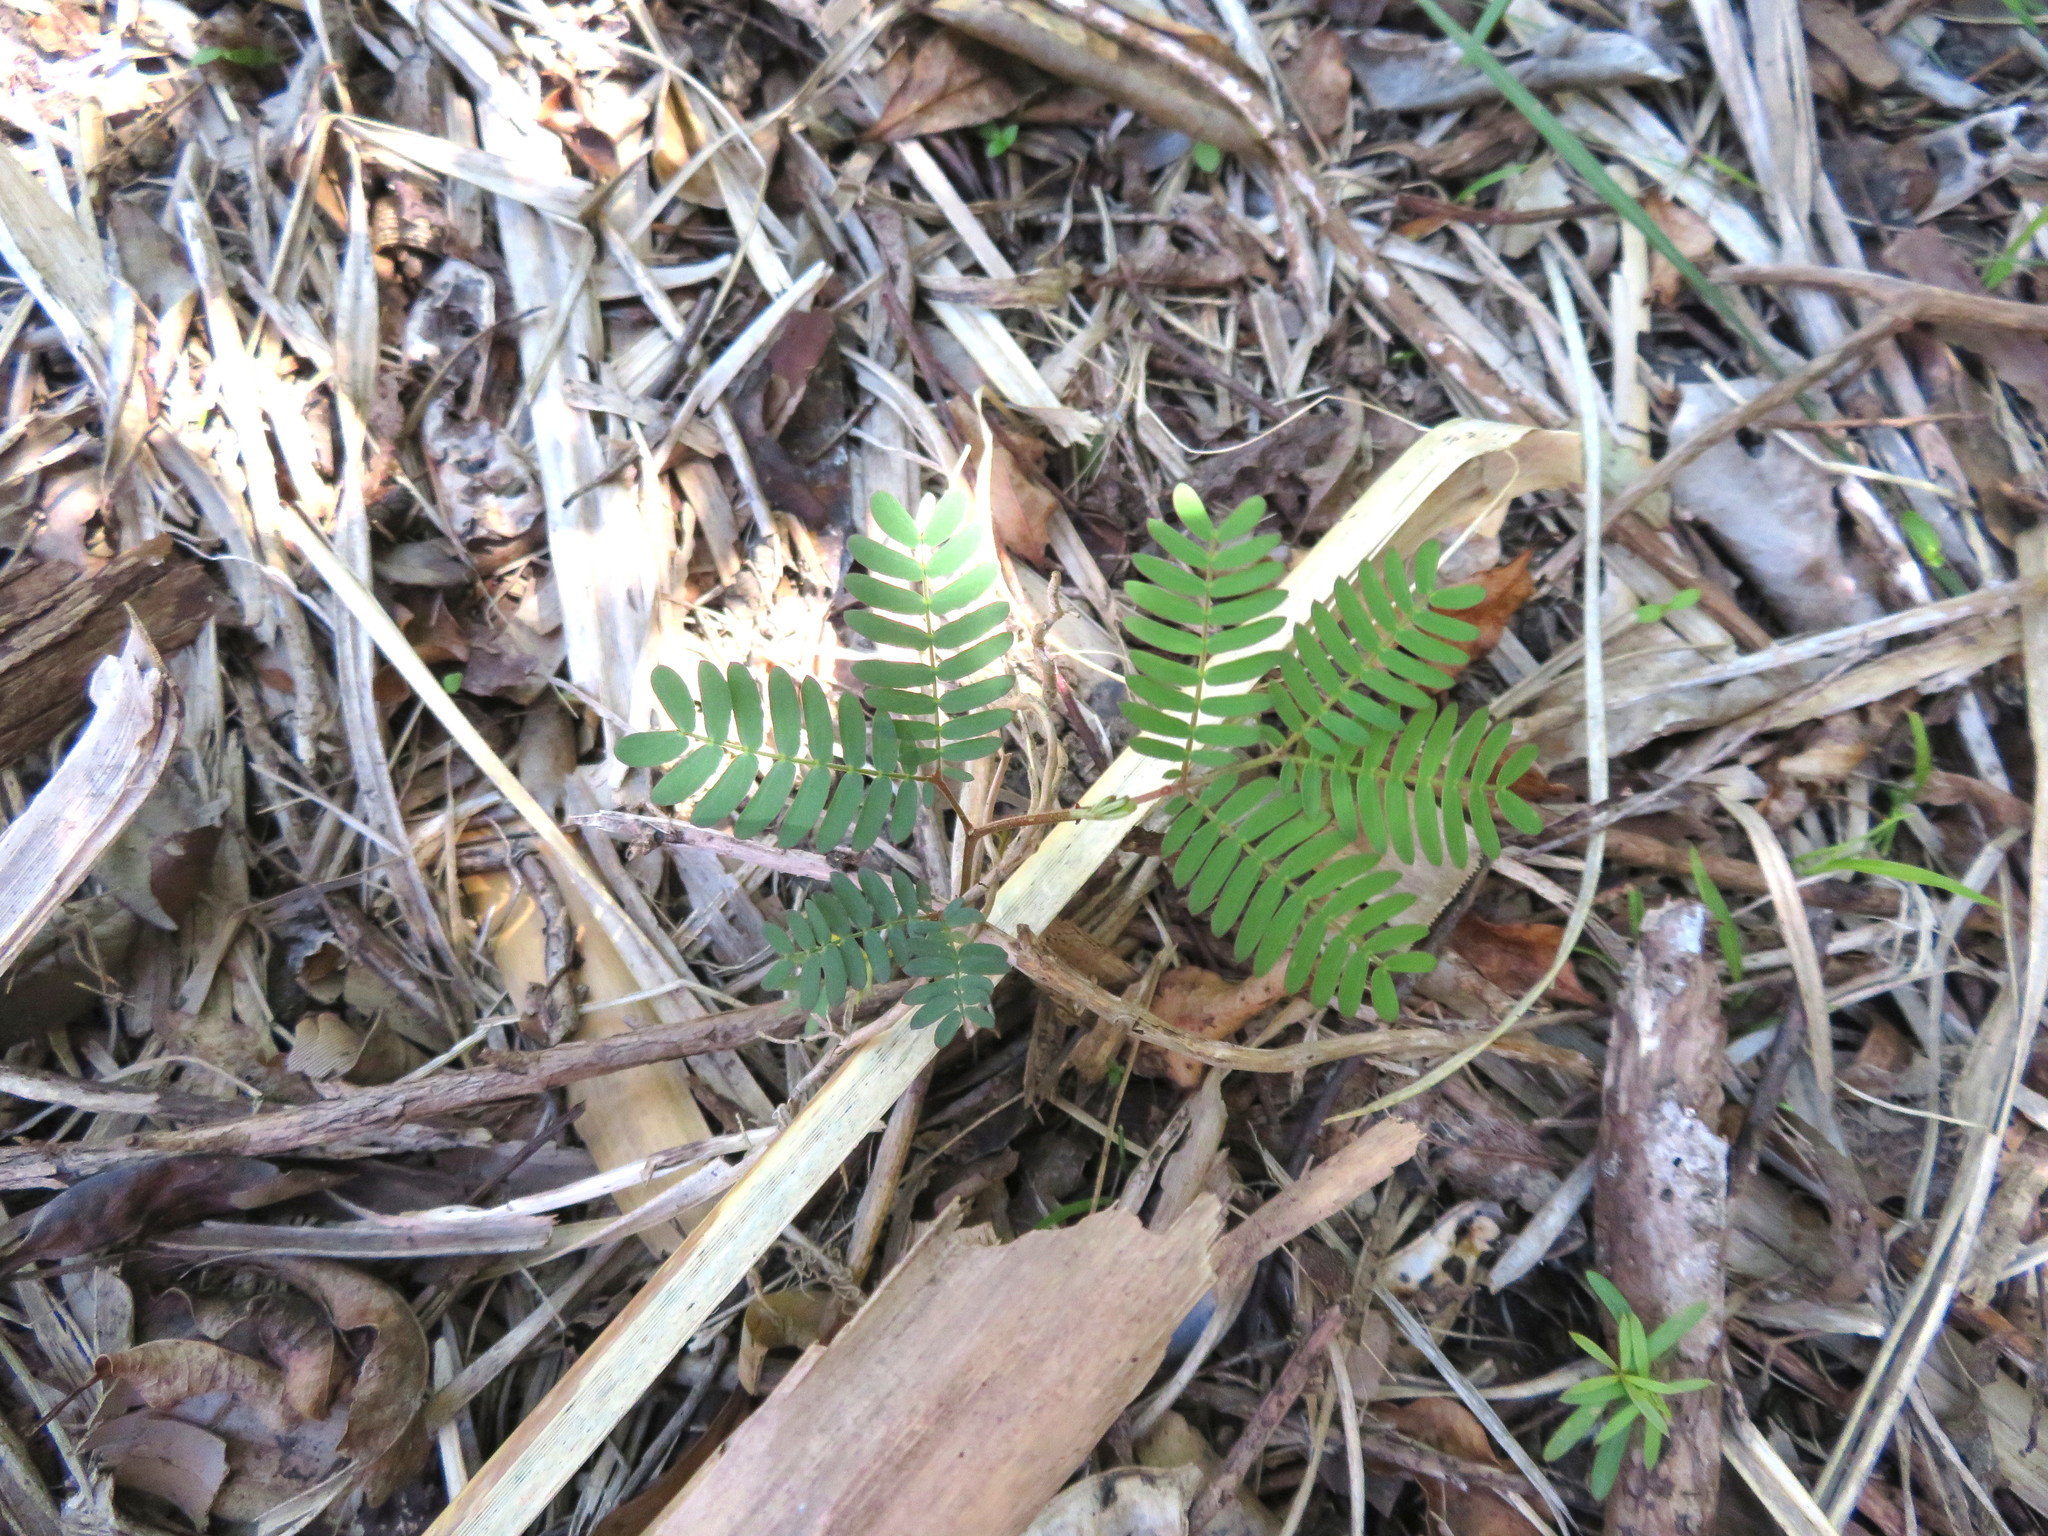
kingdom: Plantae
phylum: Tracheophyta
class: Magnoliopsida
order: Fabales
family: Fabaceae
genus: Paraserianthes
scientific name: Paraserianthes lophantha
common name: Plume albizia
